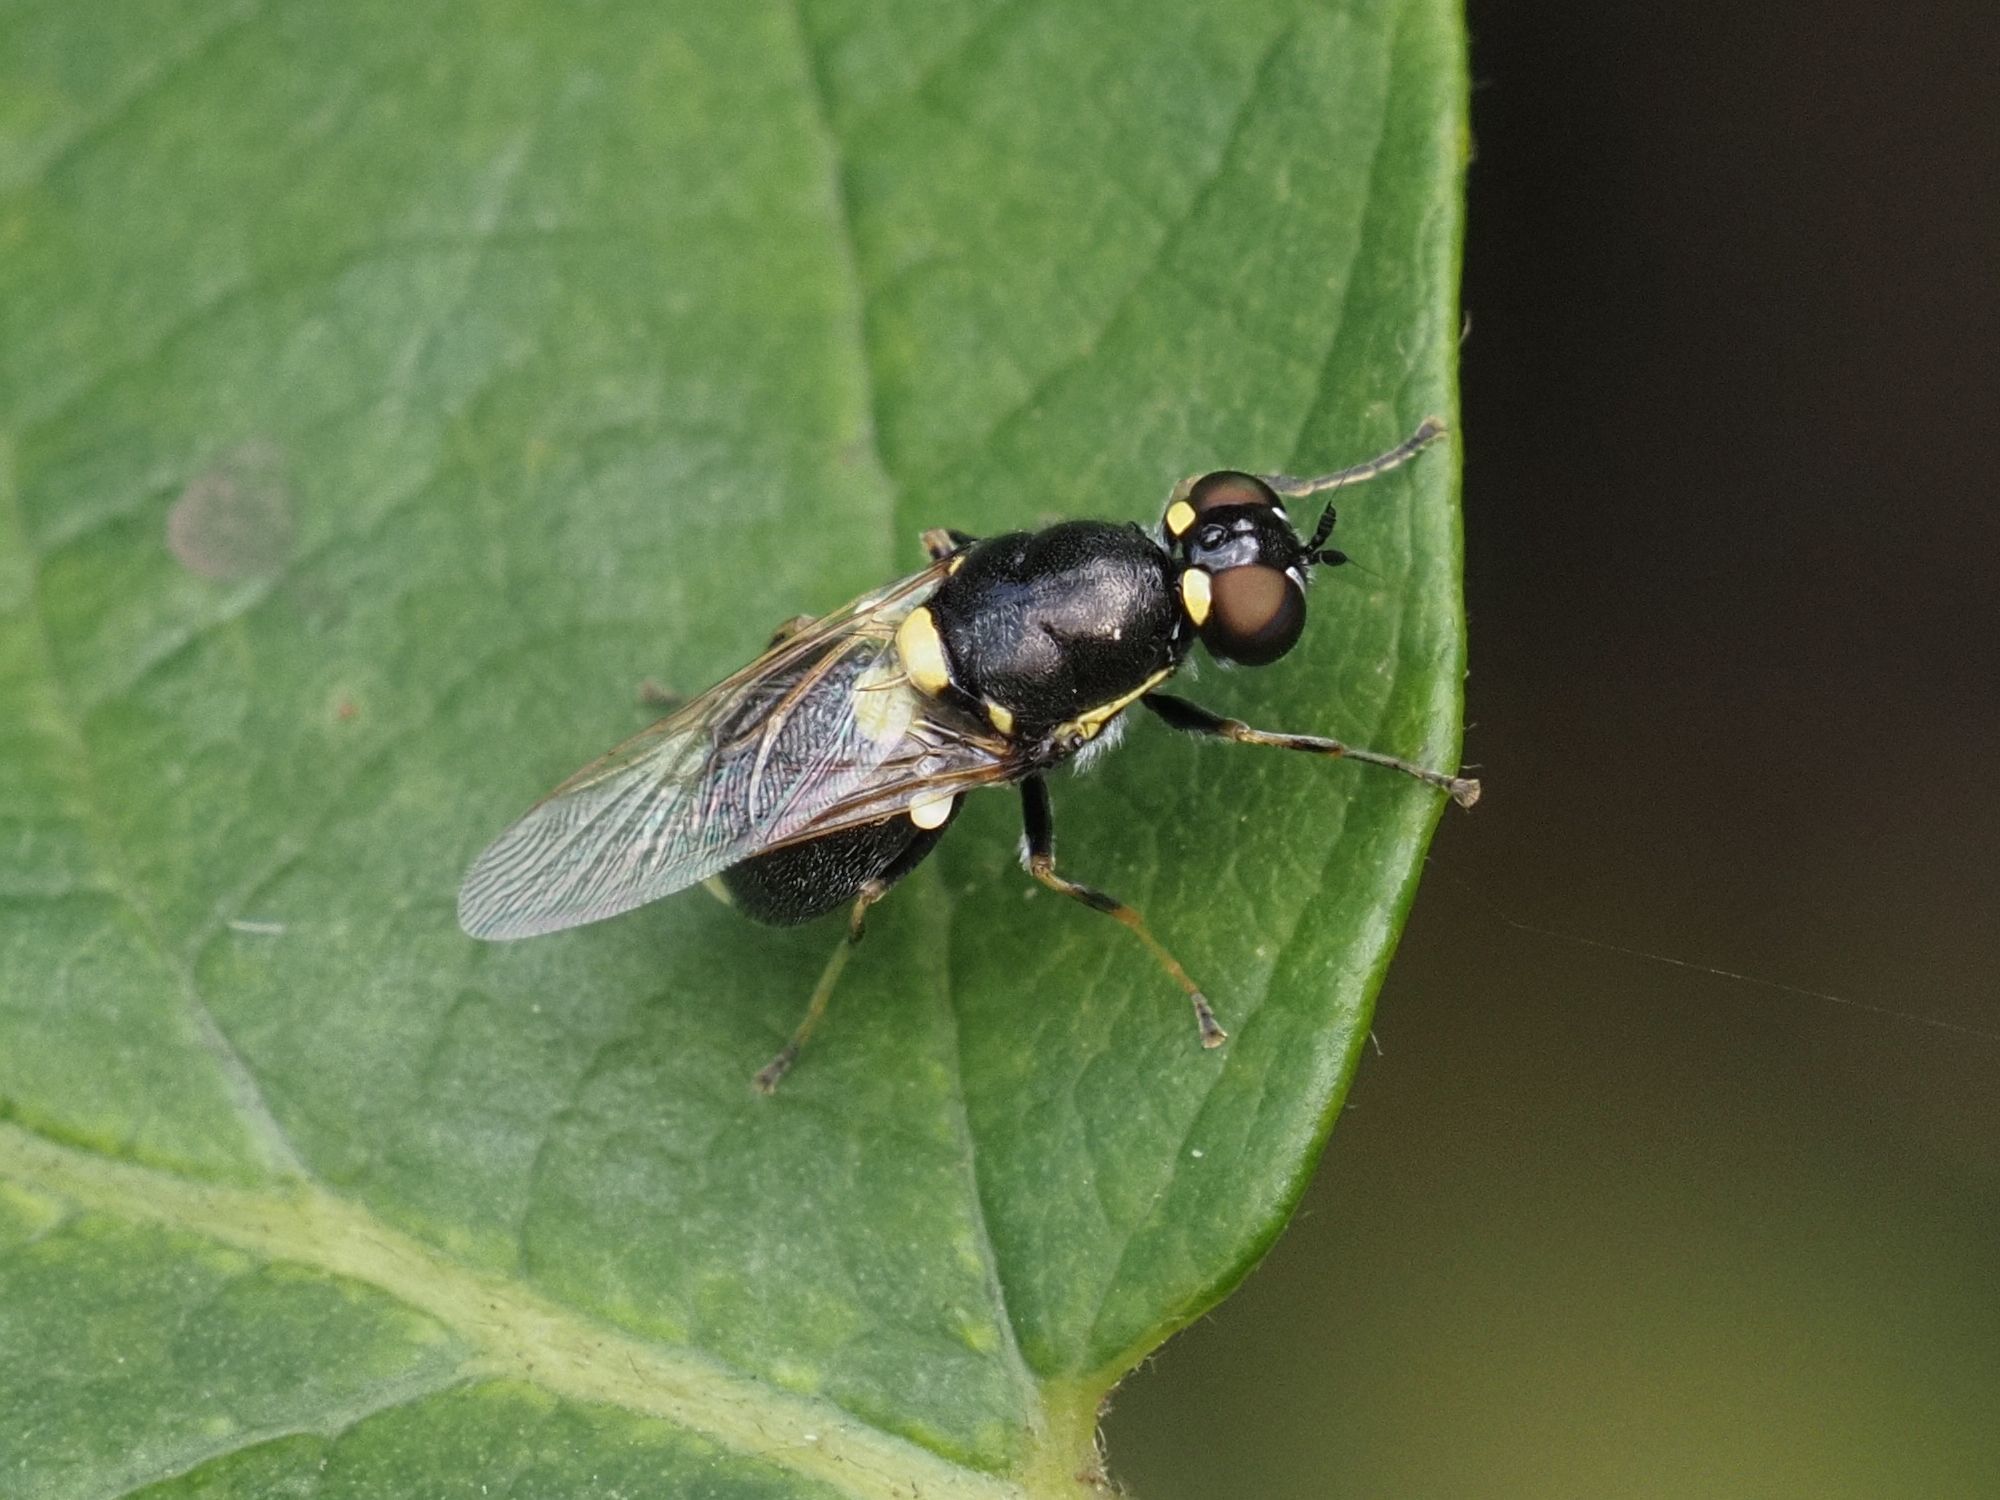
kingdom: Animalia
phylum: Arthropoda
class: Insecta
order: Diptera
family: Stratiomyidae
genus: Oxycera
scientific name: Oxycera leonina
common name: Twin-spotted major
